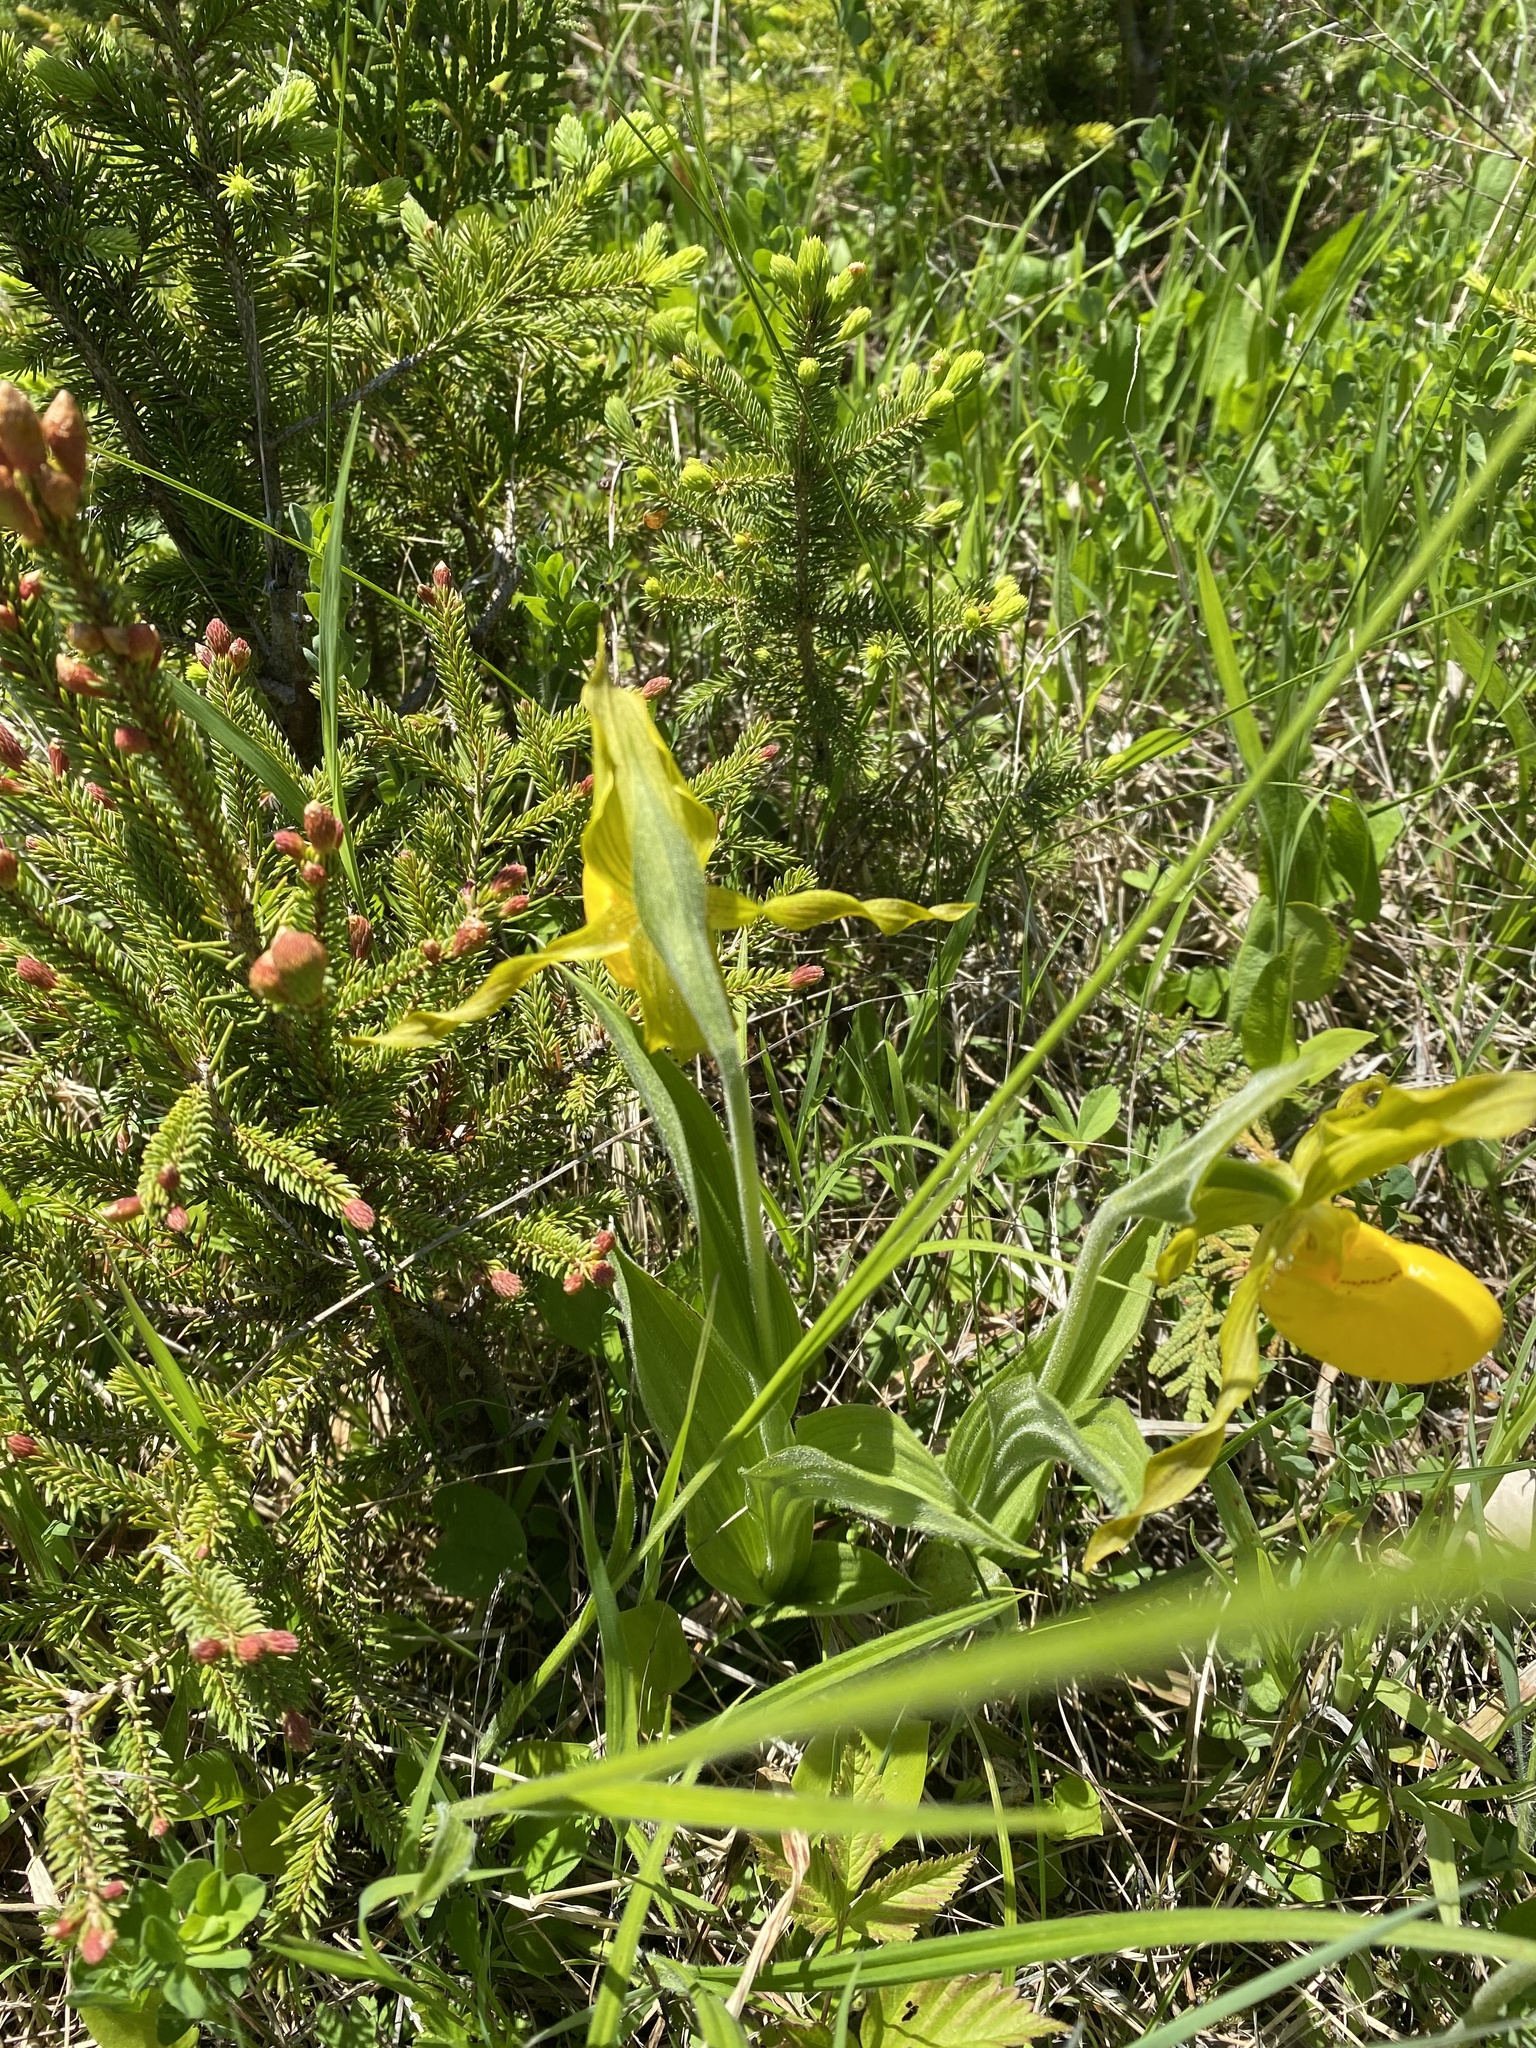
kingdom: Plantae
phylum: Tracheophyta
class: Liliopsida
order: Asparagales
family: Orchidaceae
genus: Cypripedium
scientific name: Cypripedium parviflorum
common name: American yellow lady's-slipper
